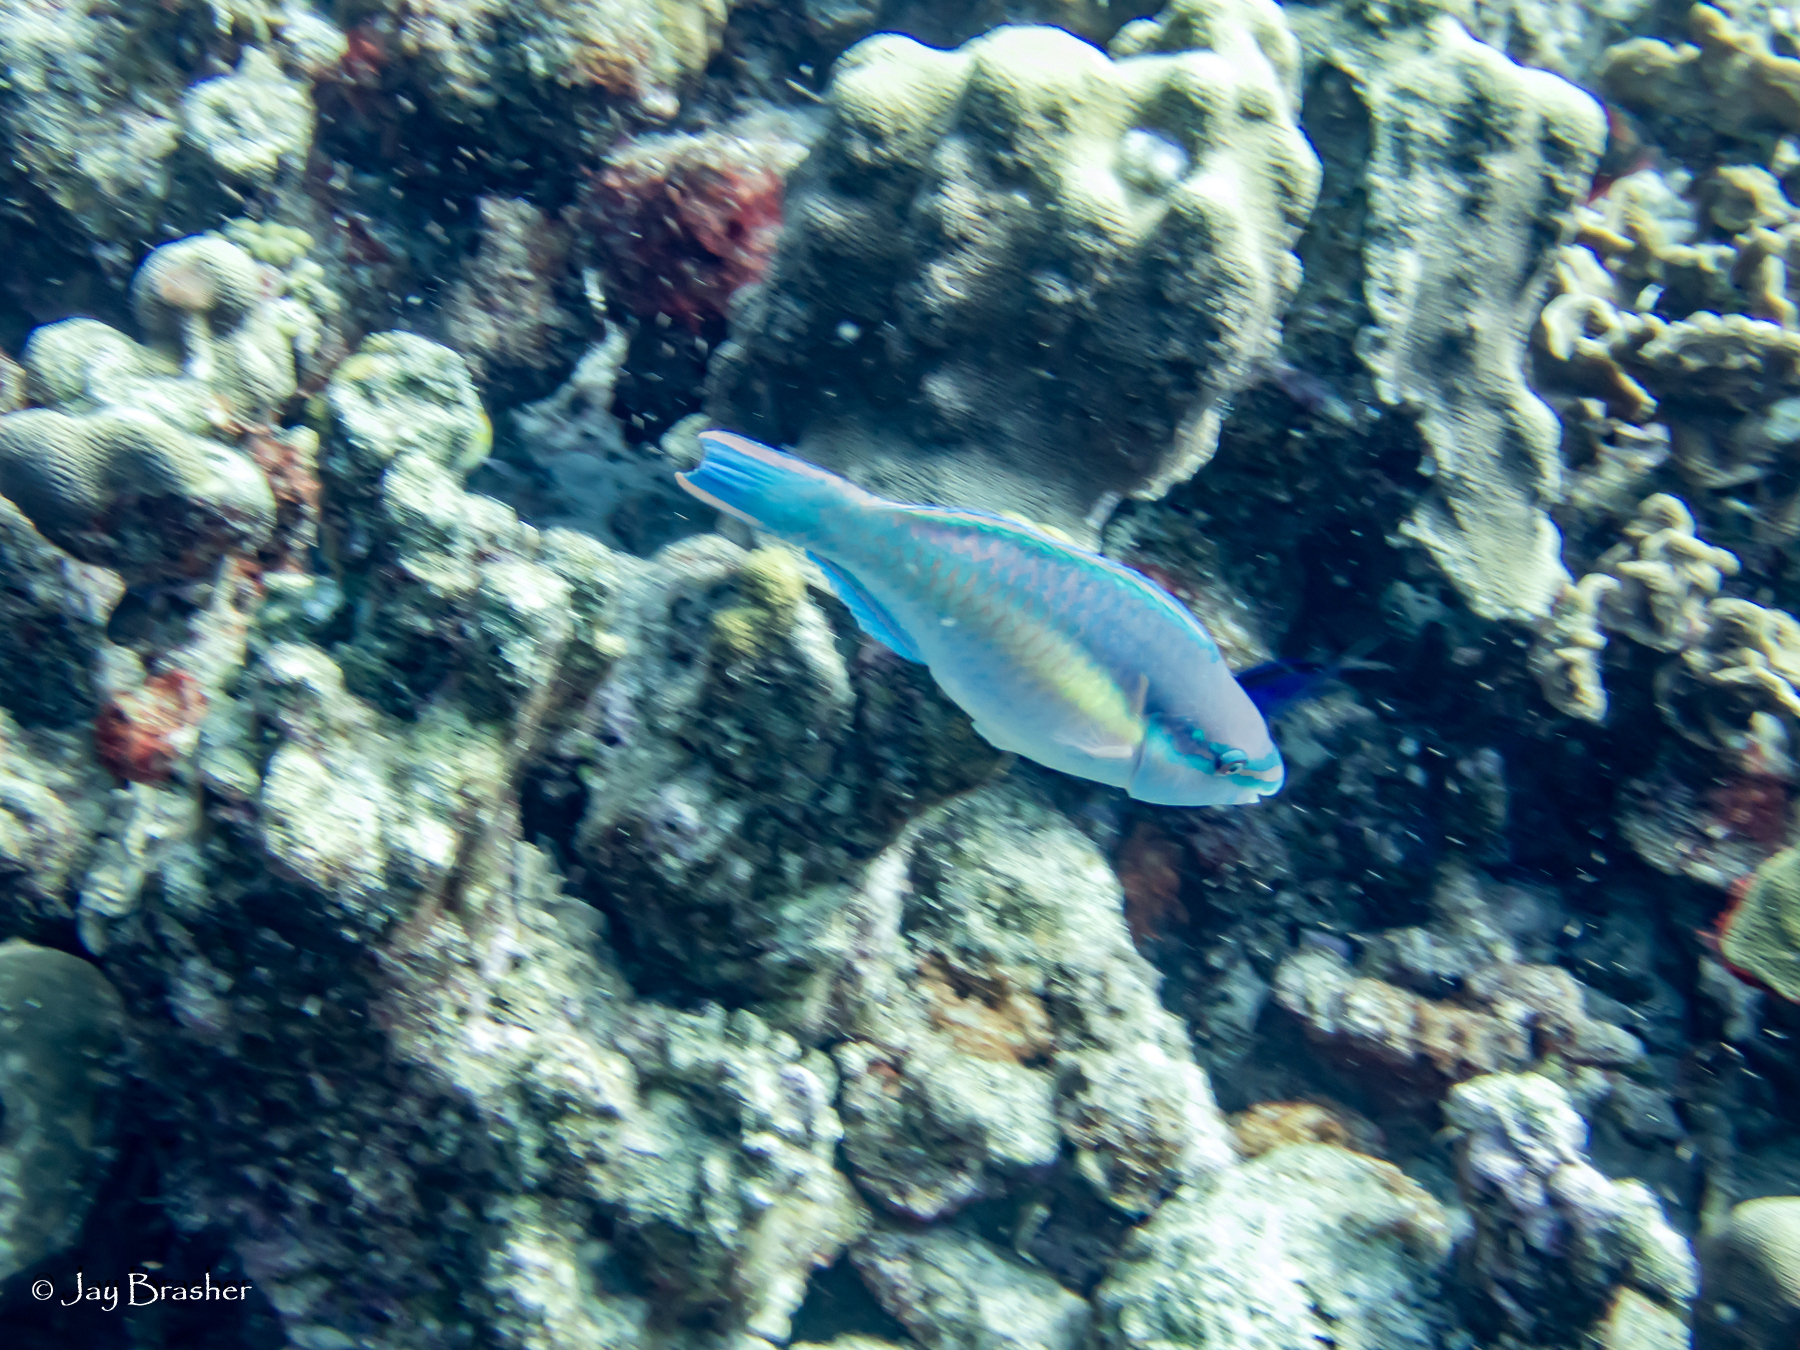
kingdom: Animalia
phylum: Chordata
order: Perciformes
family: Scaridae
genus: Scarus
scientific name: Scarus taeniopterus
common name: Princess parrotfish
